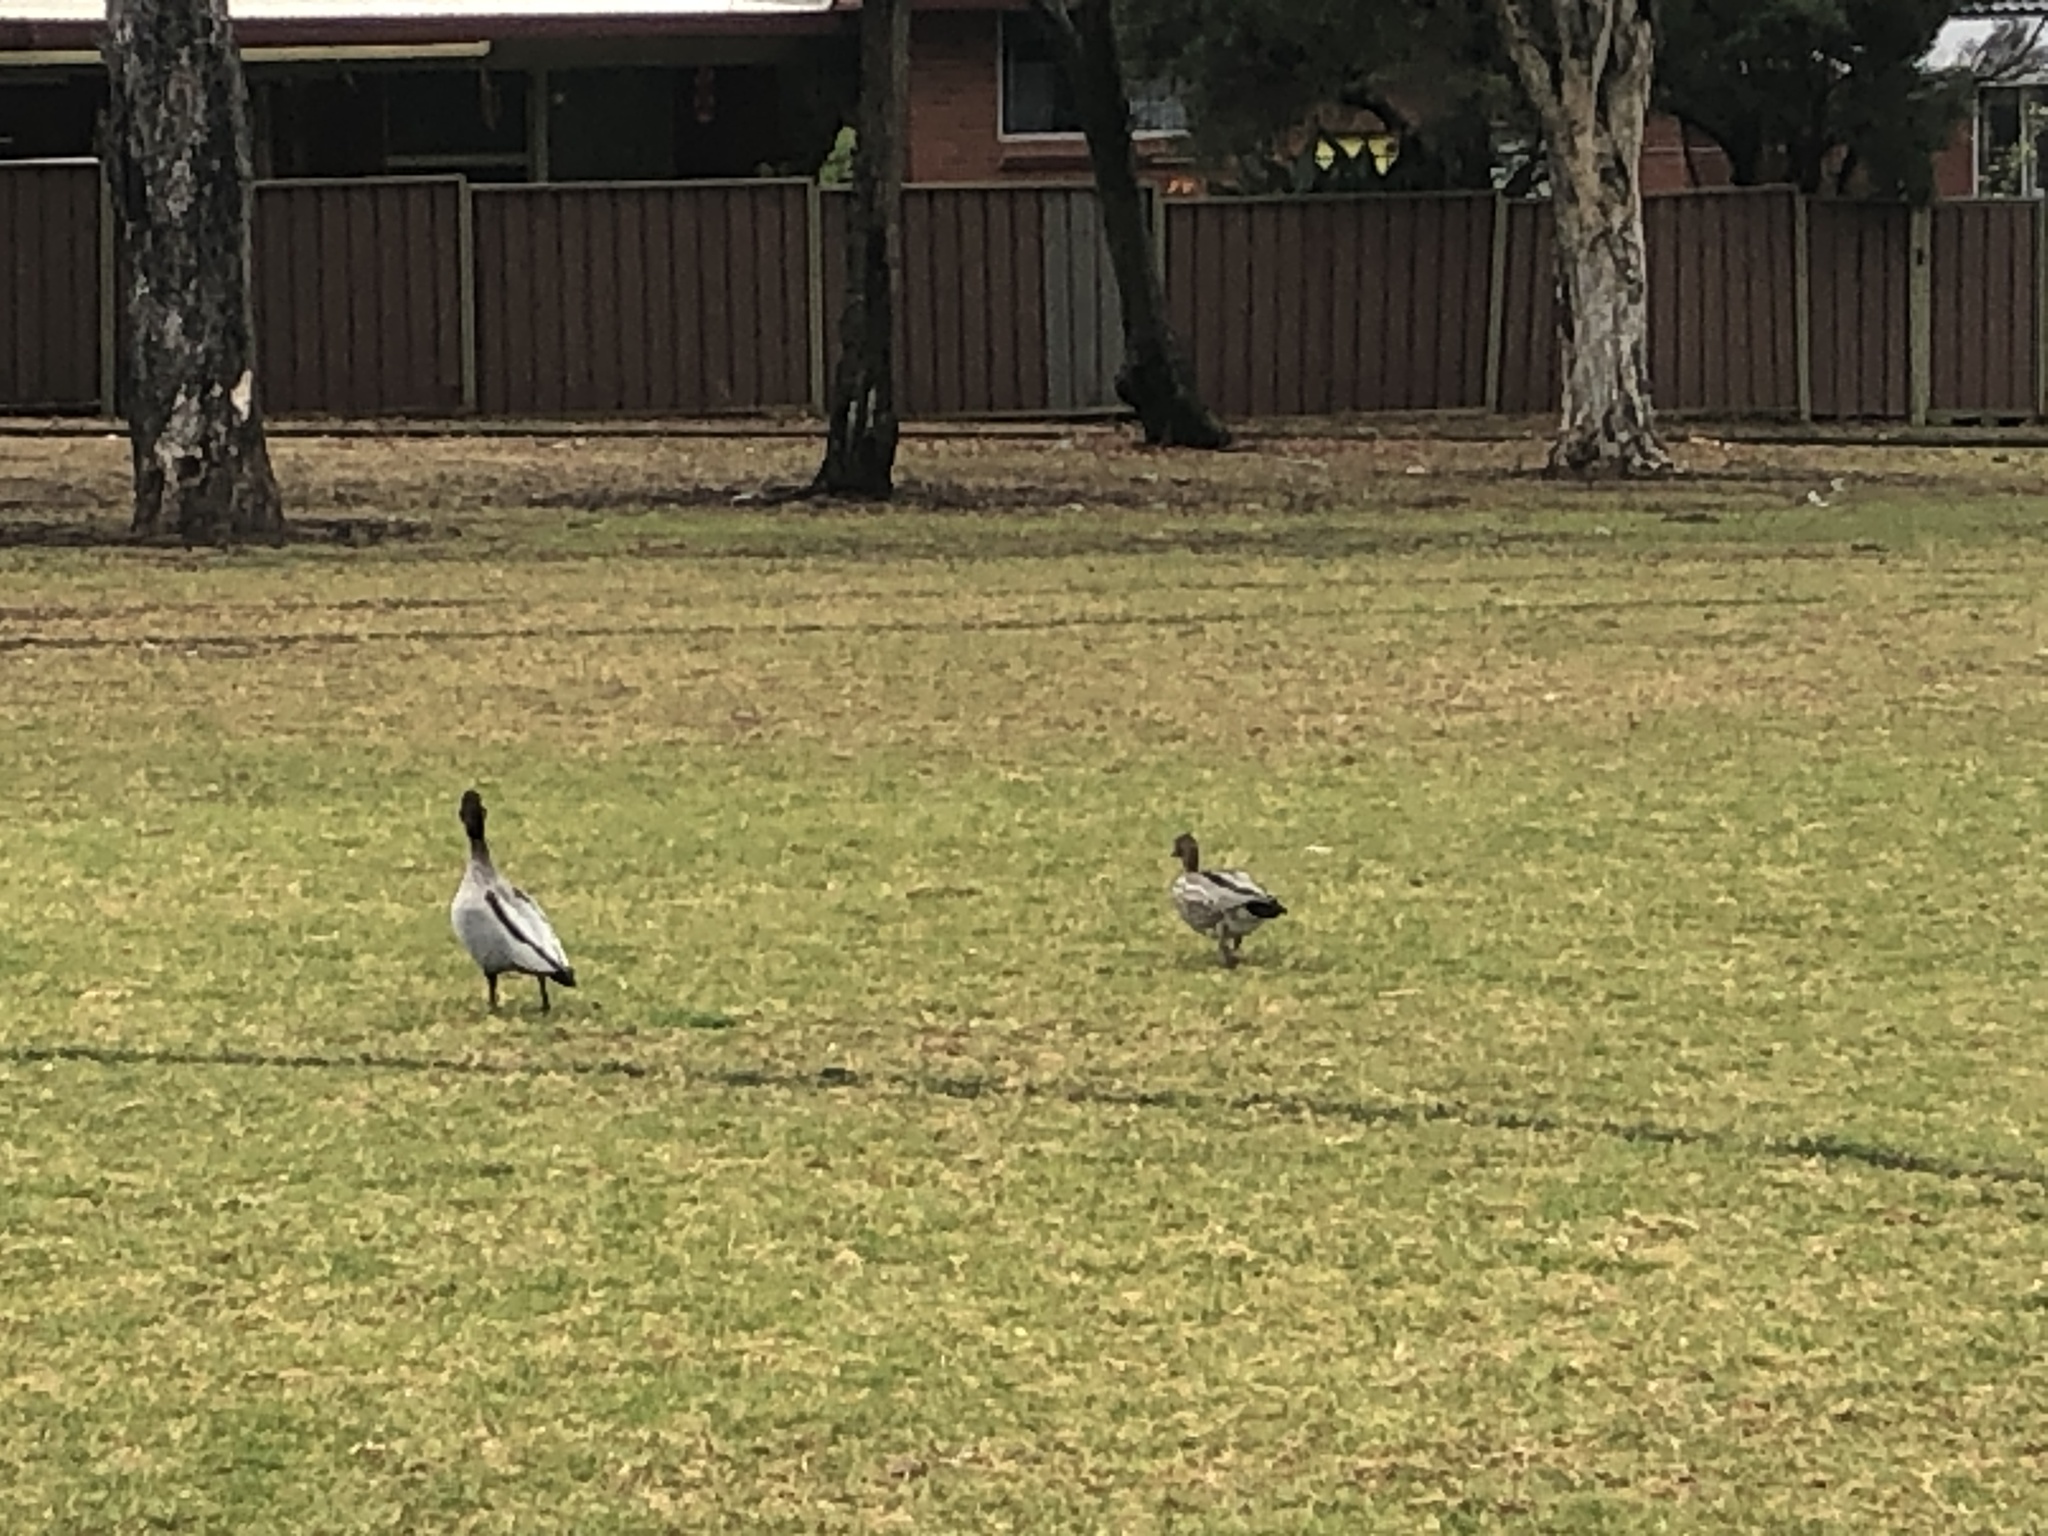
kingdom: Animalia
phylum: Chordata
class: Aves
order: Anseriformes
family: Anatidae
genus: Chenonetta
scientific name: Chenonetta jubata
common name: Maned duck
